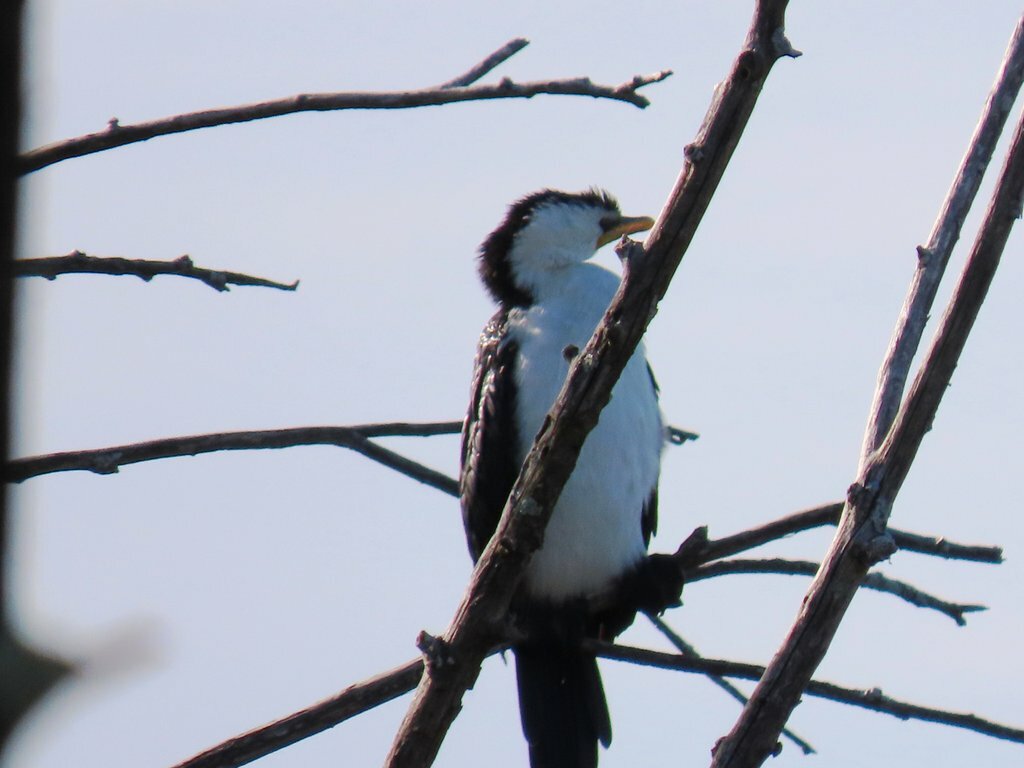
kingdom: Animalia
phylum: Chordata
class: Aves
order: Suliformes
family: Phalacrocoracidae
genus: Microcarbo
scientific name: Microcarbo melanoleucos
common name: Little pied cormorant
